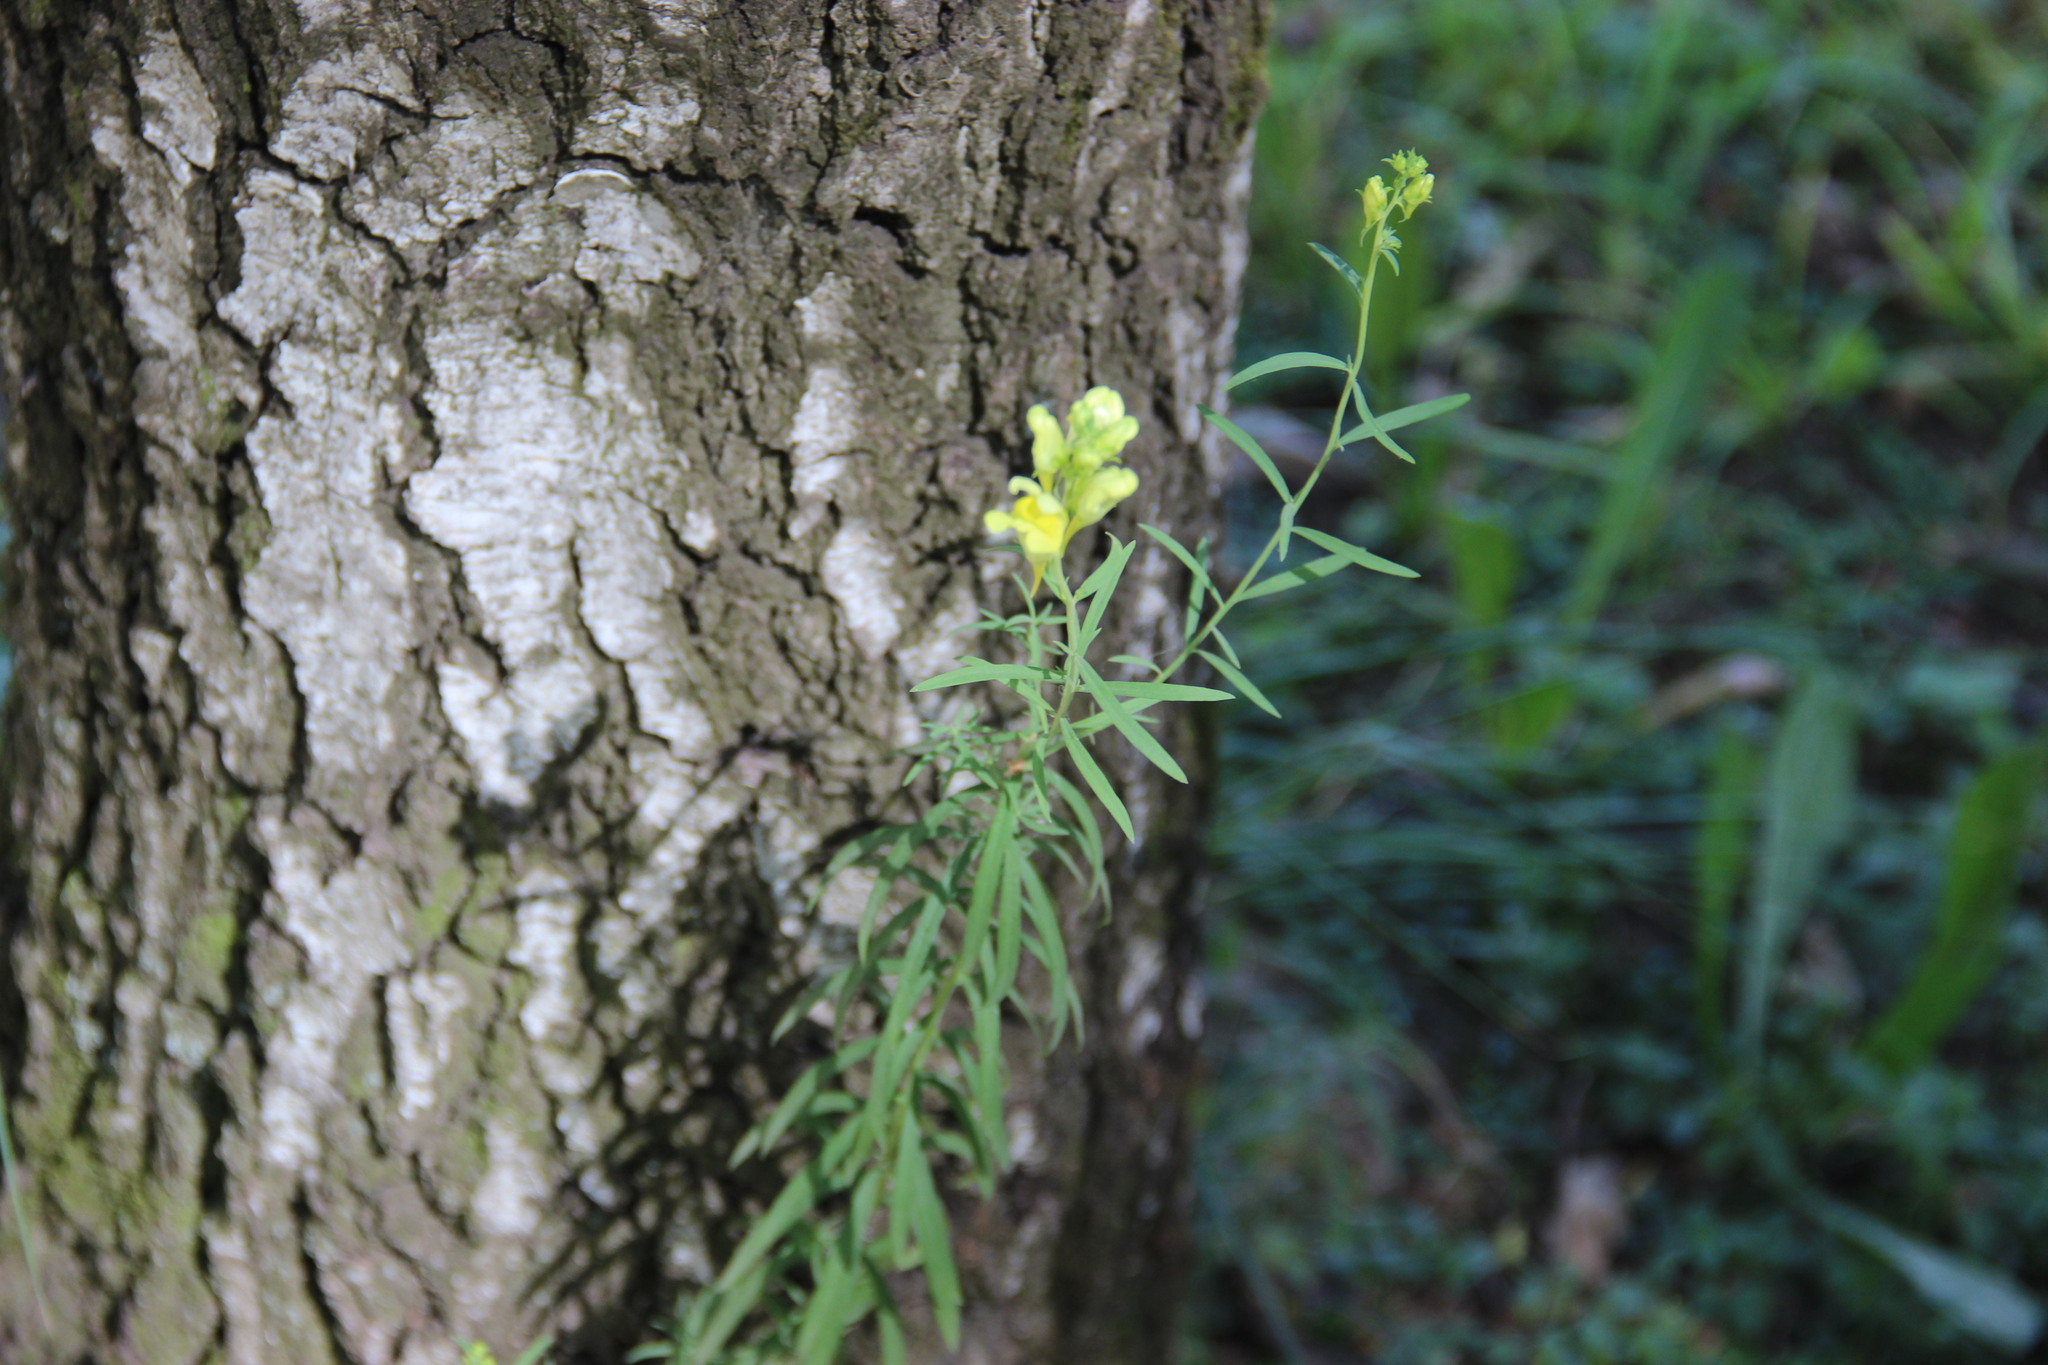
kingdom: Plantae
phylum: Tracheophyta
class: Magnoliopsida
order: Lamiales
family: Plantaginaceae
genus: Linaria
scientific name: Linaria vulgaris
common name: Butter and eggs
